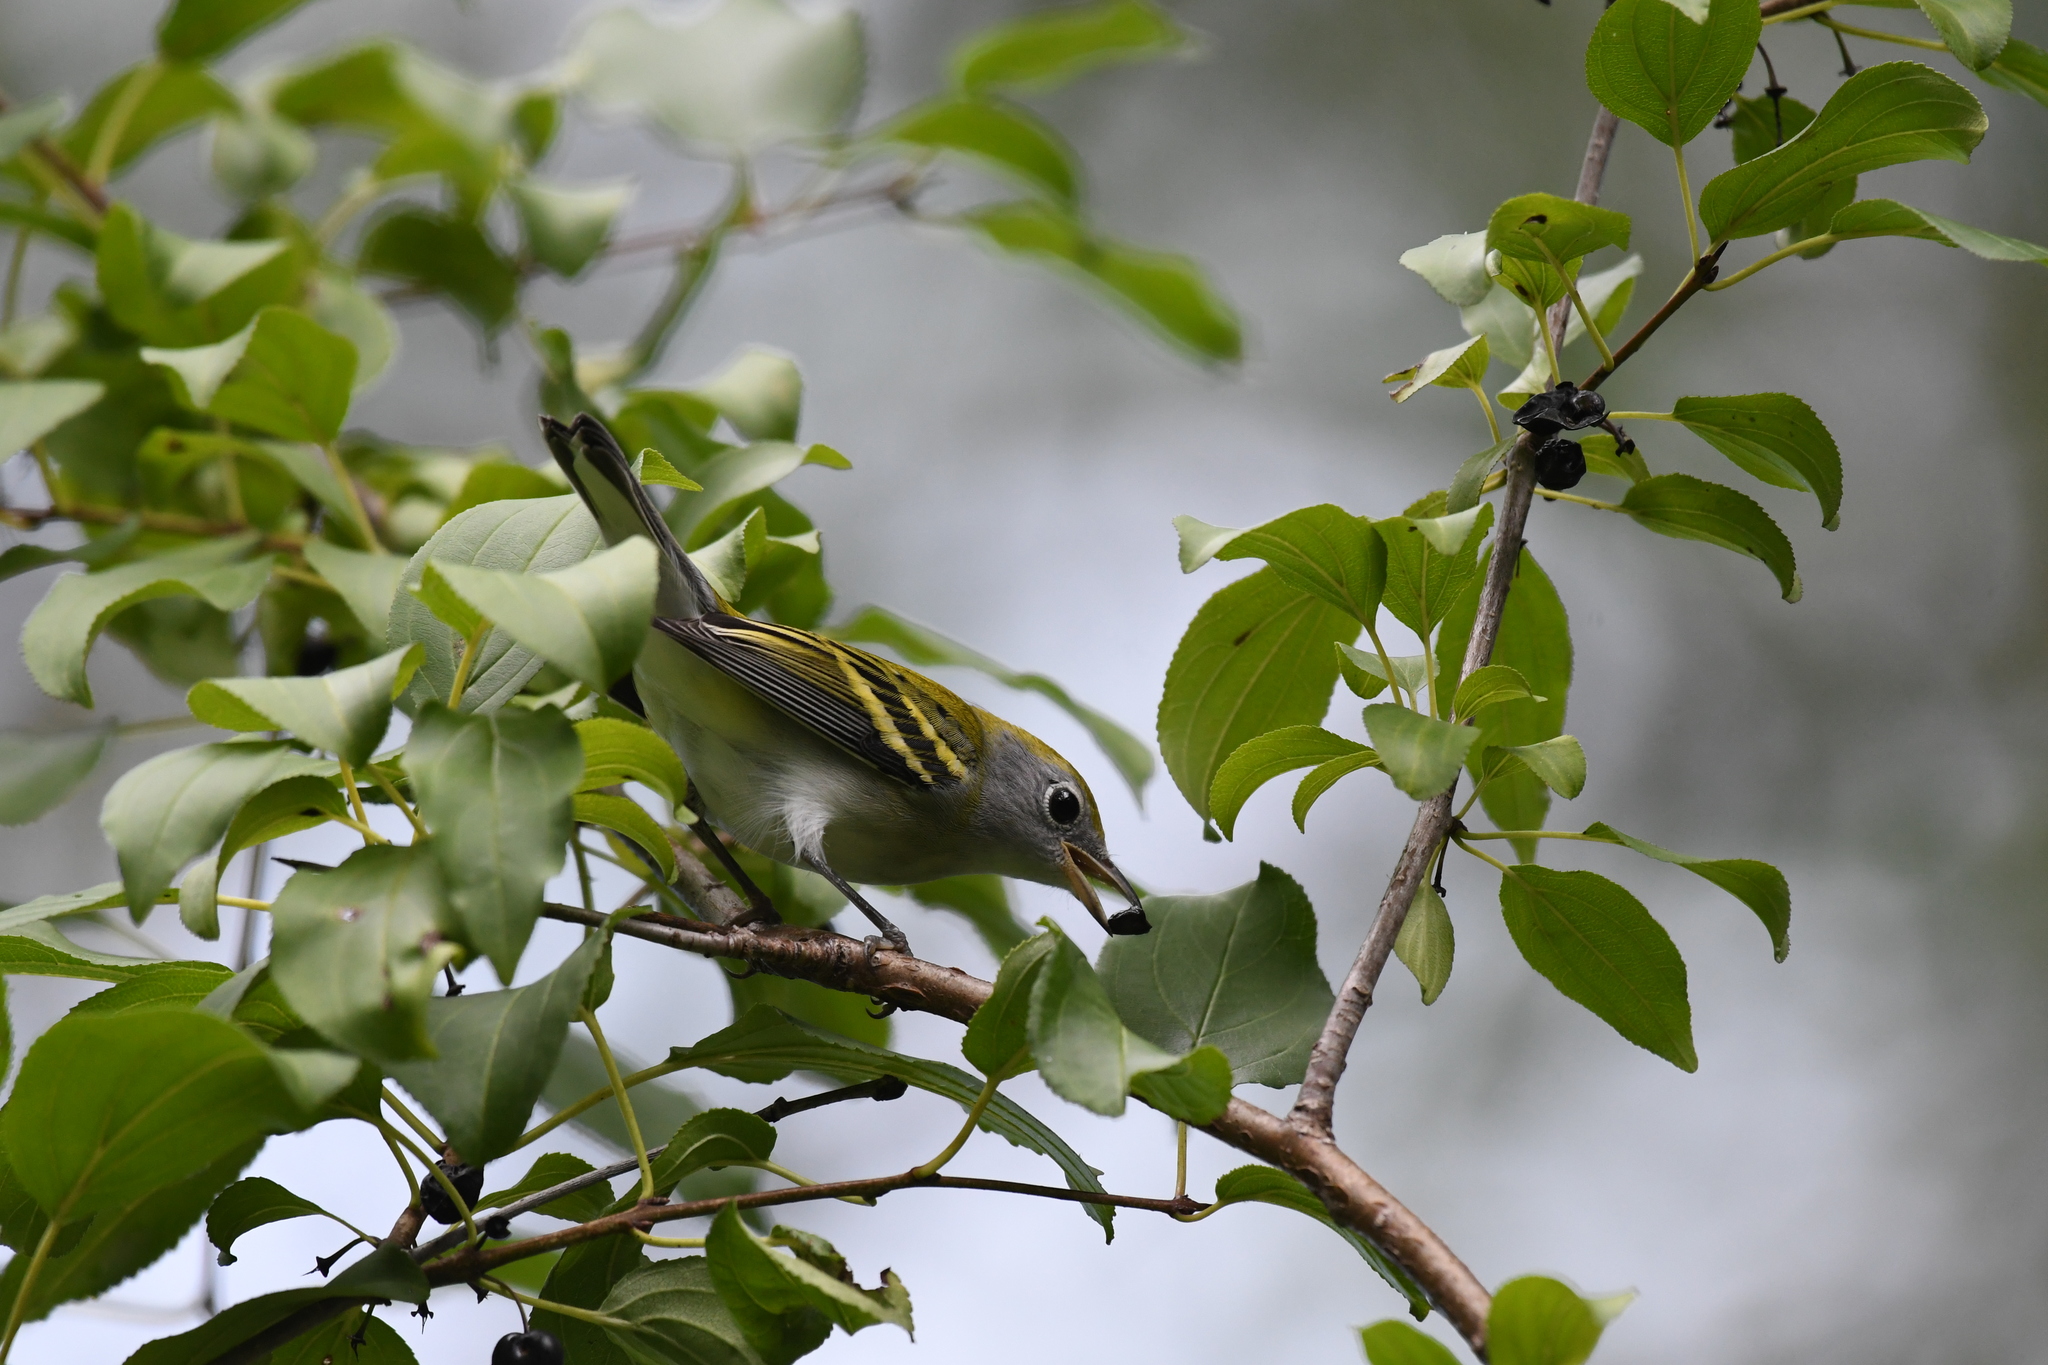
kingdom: Animalia
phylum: Chordata
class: Aves
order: Passeriformes
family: Parulidae
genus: Setophaga
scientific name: Setophaga pensylvanica
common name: Chestnut-sided warbler
